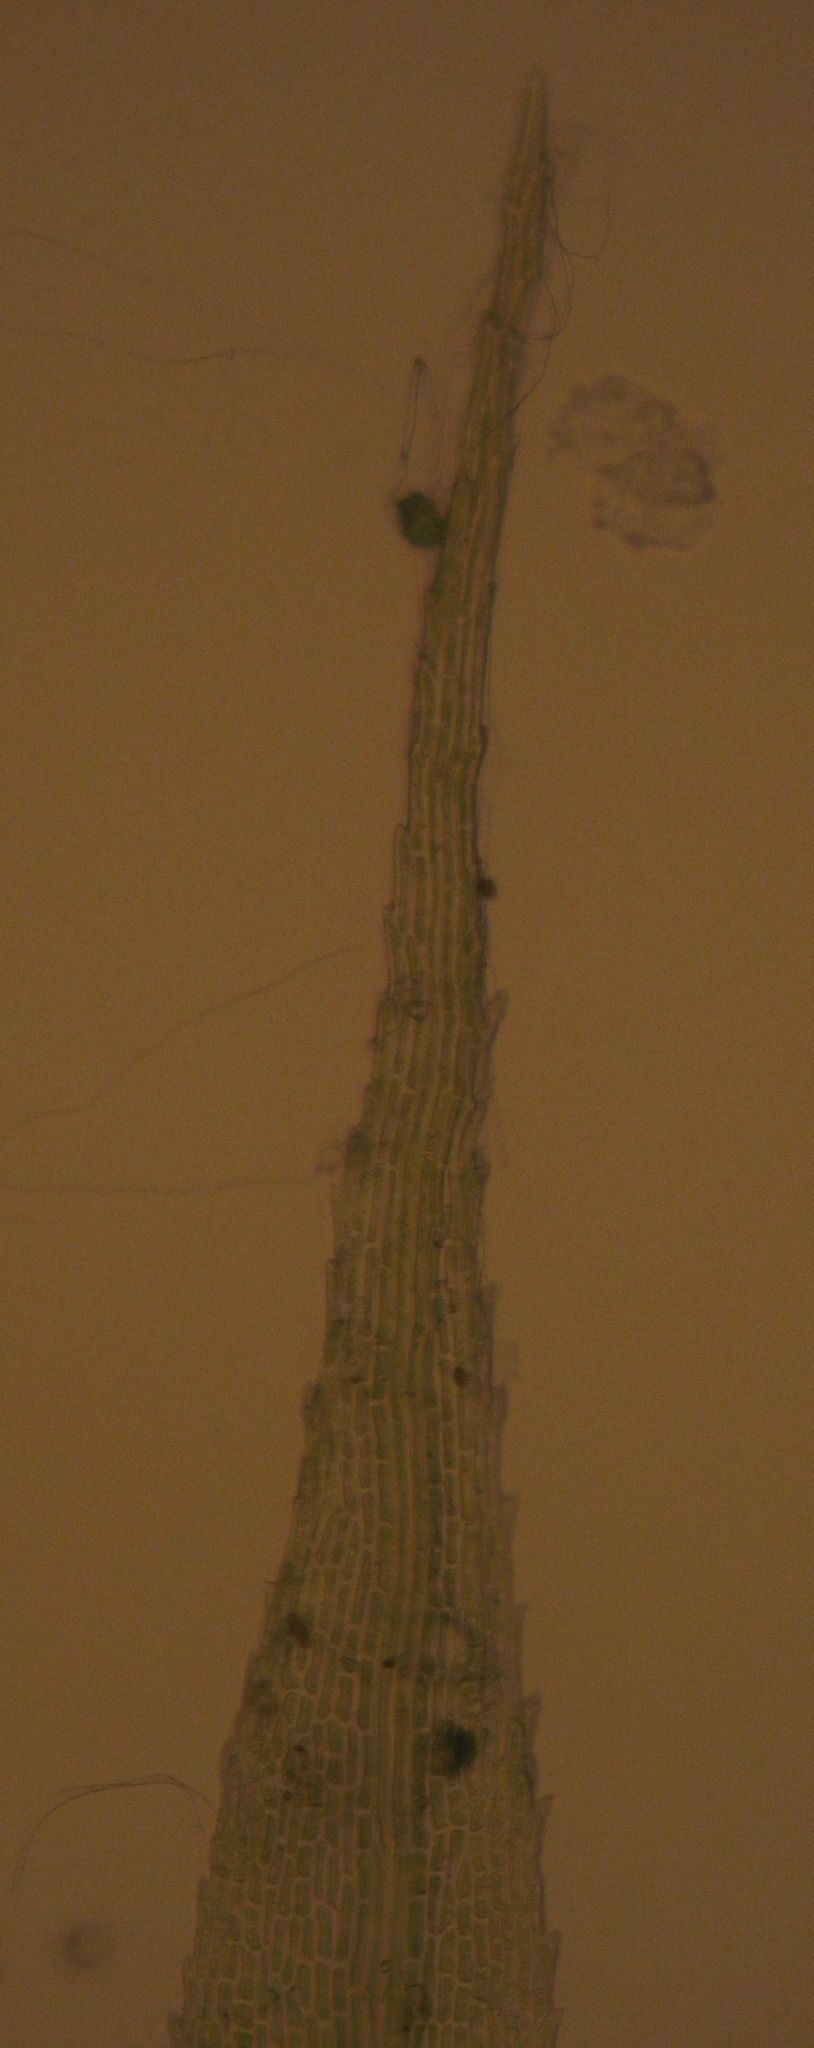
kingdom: Plantae
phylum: Bryophyta
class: Bryopsida
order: Bartramiales
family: Bartramiaceae
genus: Breutelia
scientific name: Breutelia pendula
